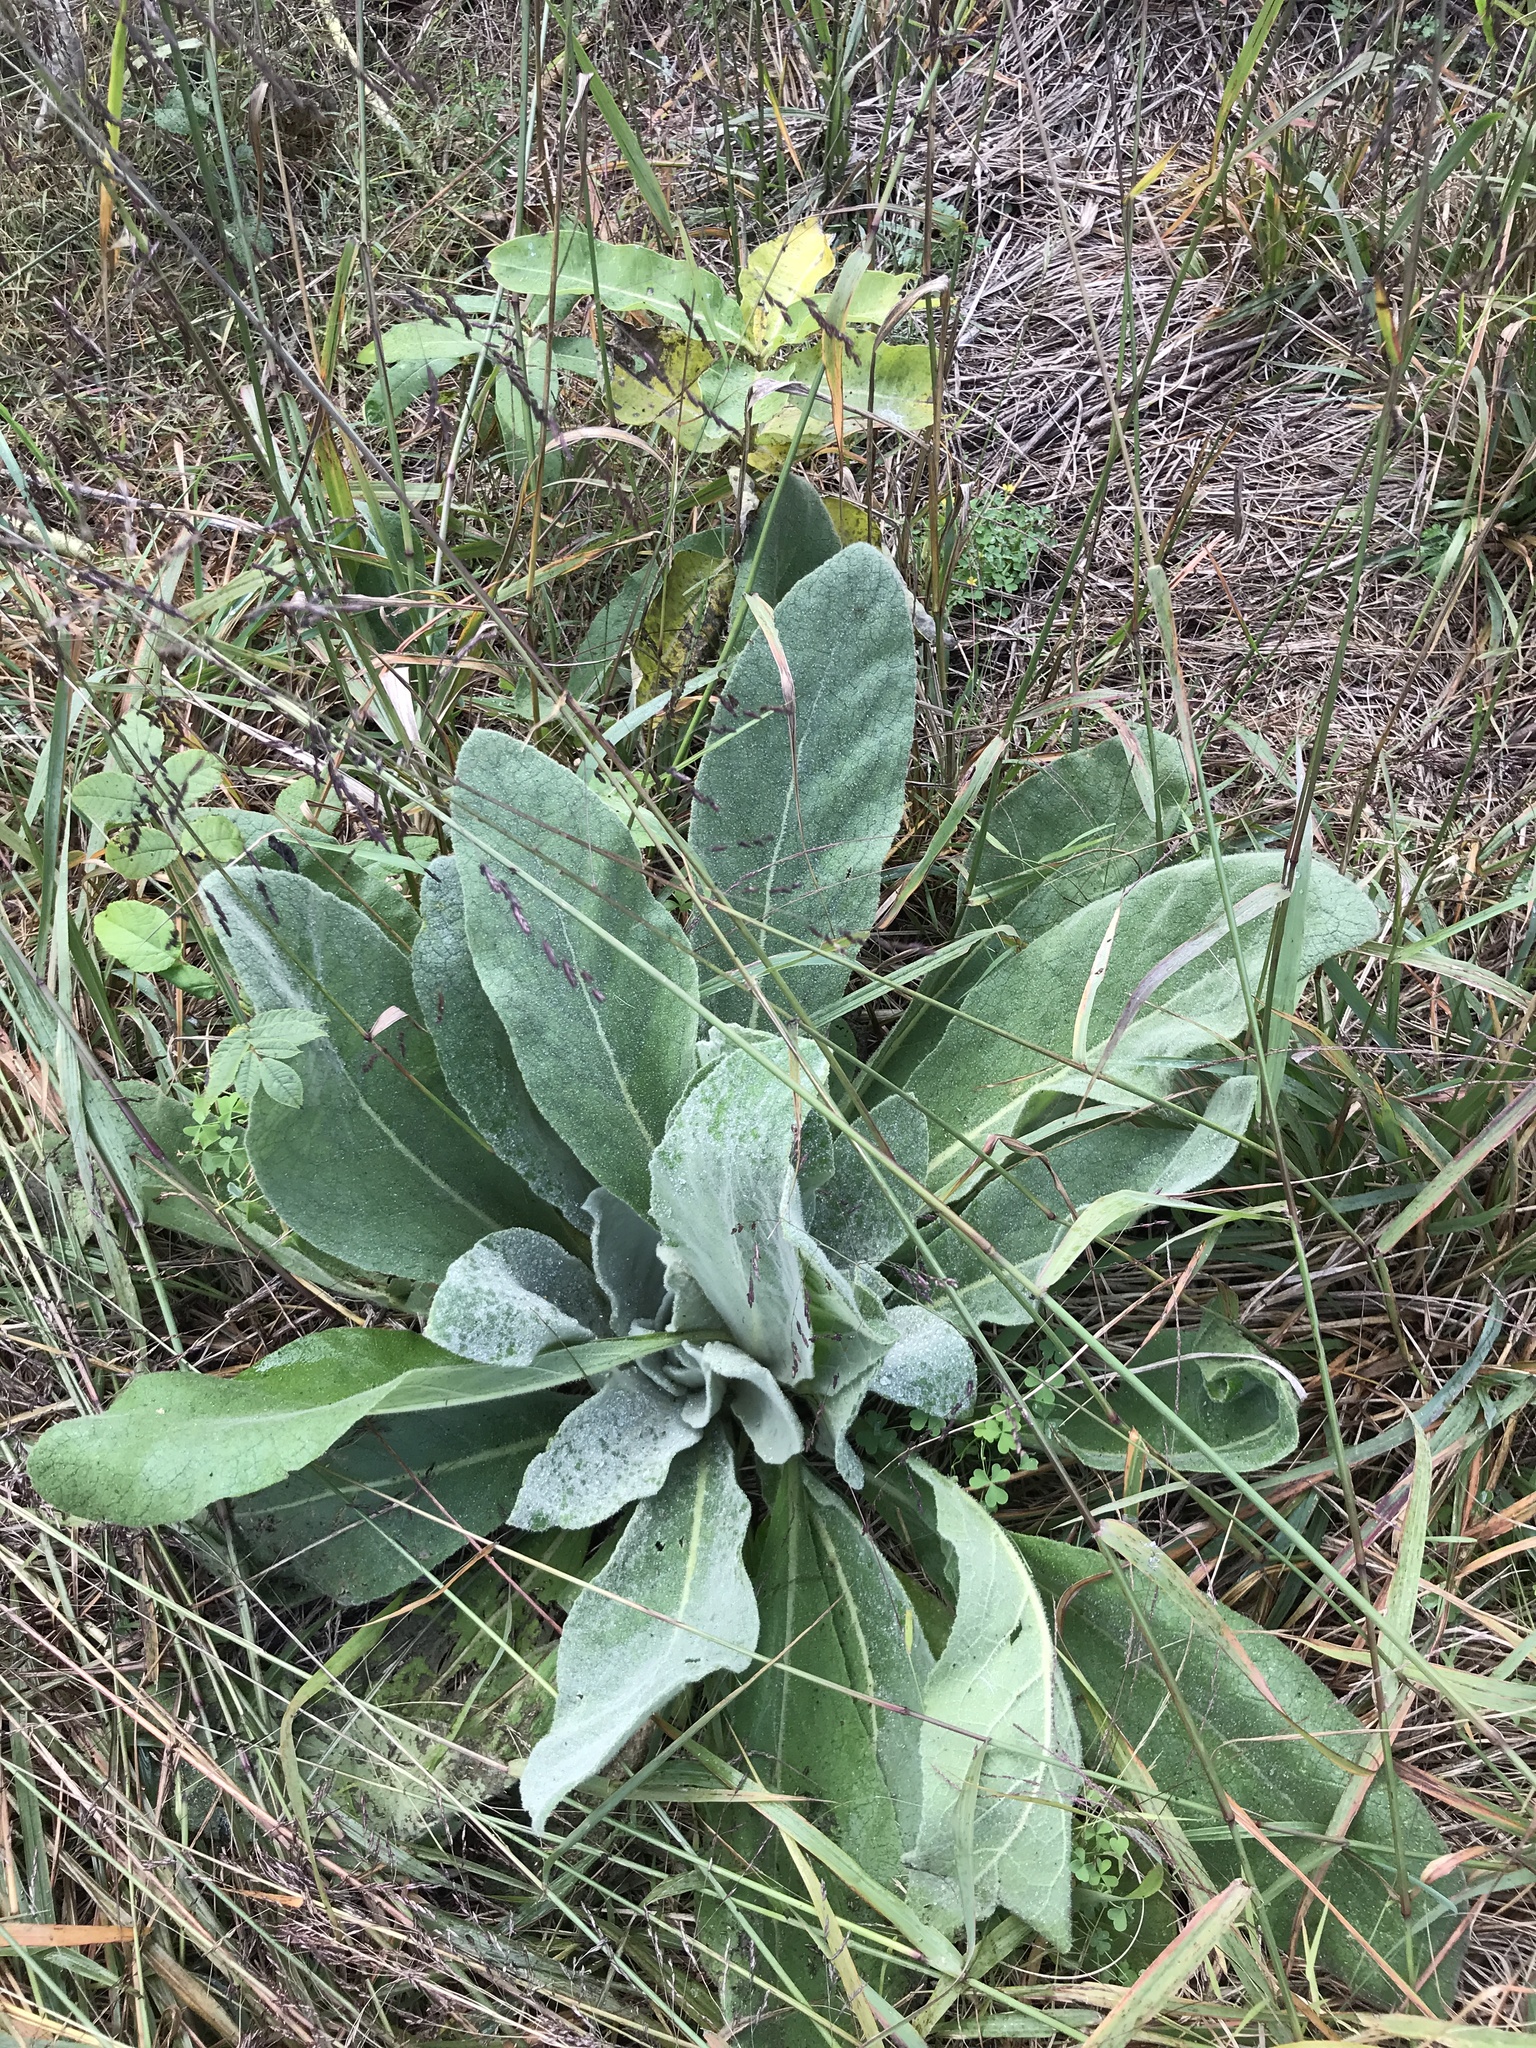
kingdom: Plantae
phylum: Tracheophyta
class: Magnoliopsida
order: Lamiales
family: Scrophulariaceae
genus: Verbascum
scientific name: Verbascum thapsus
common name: Common mullein
